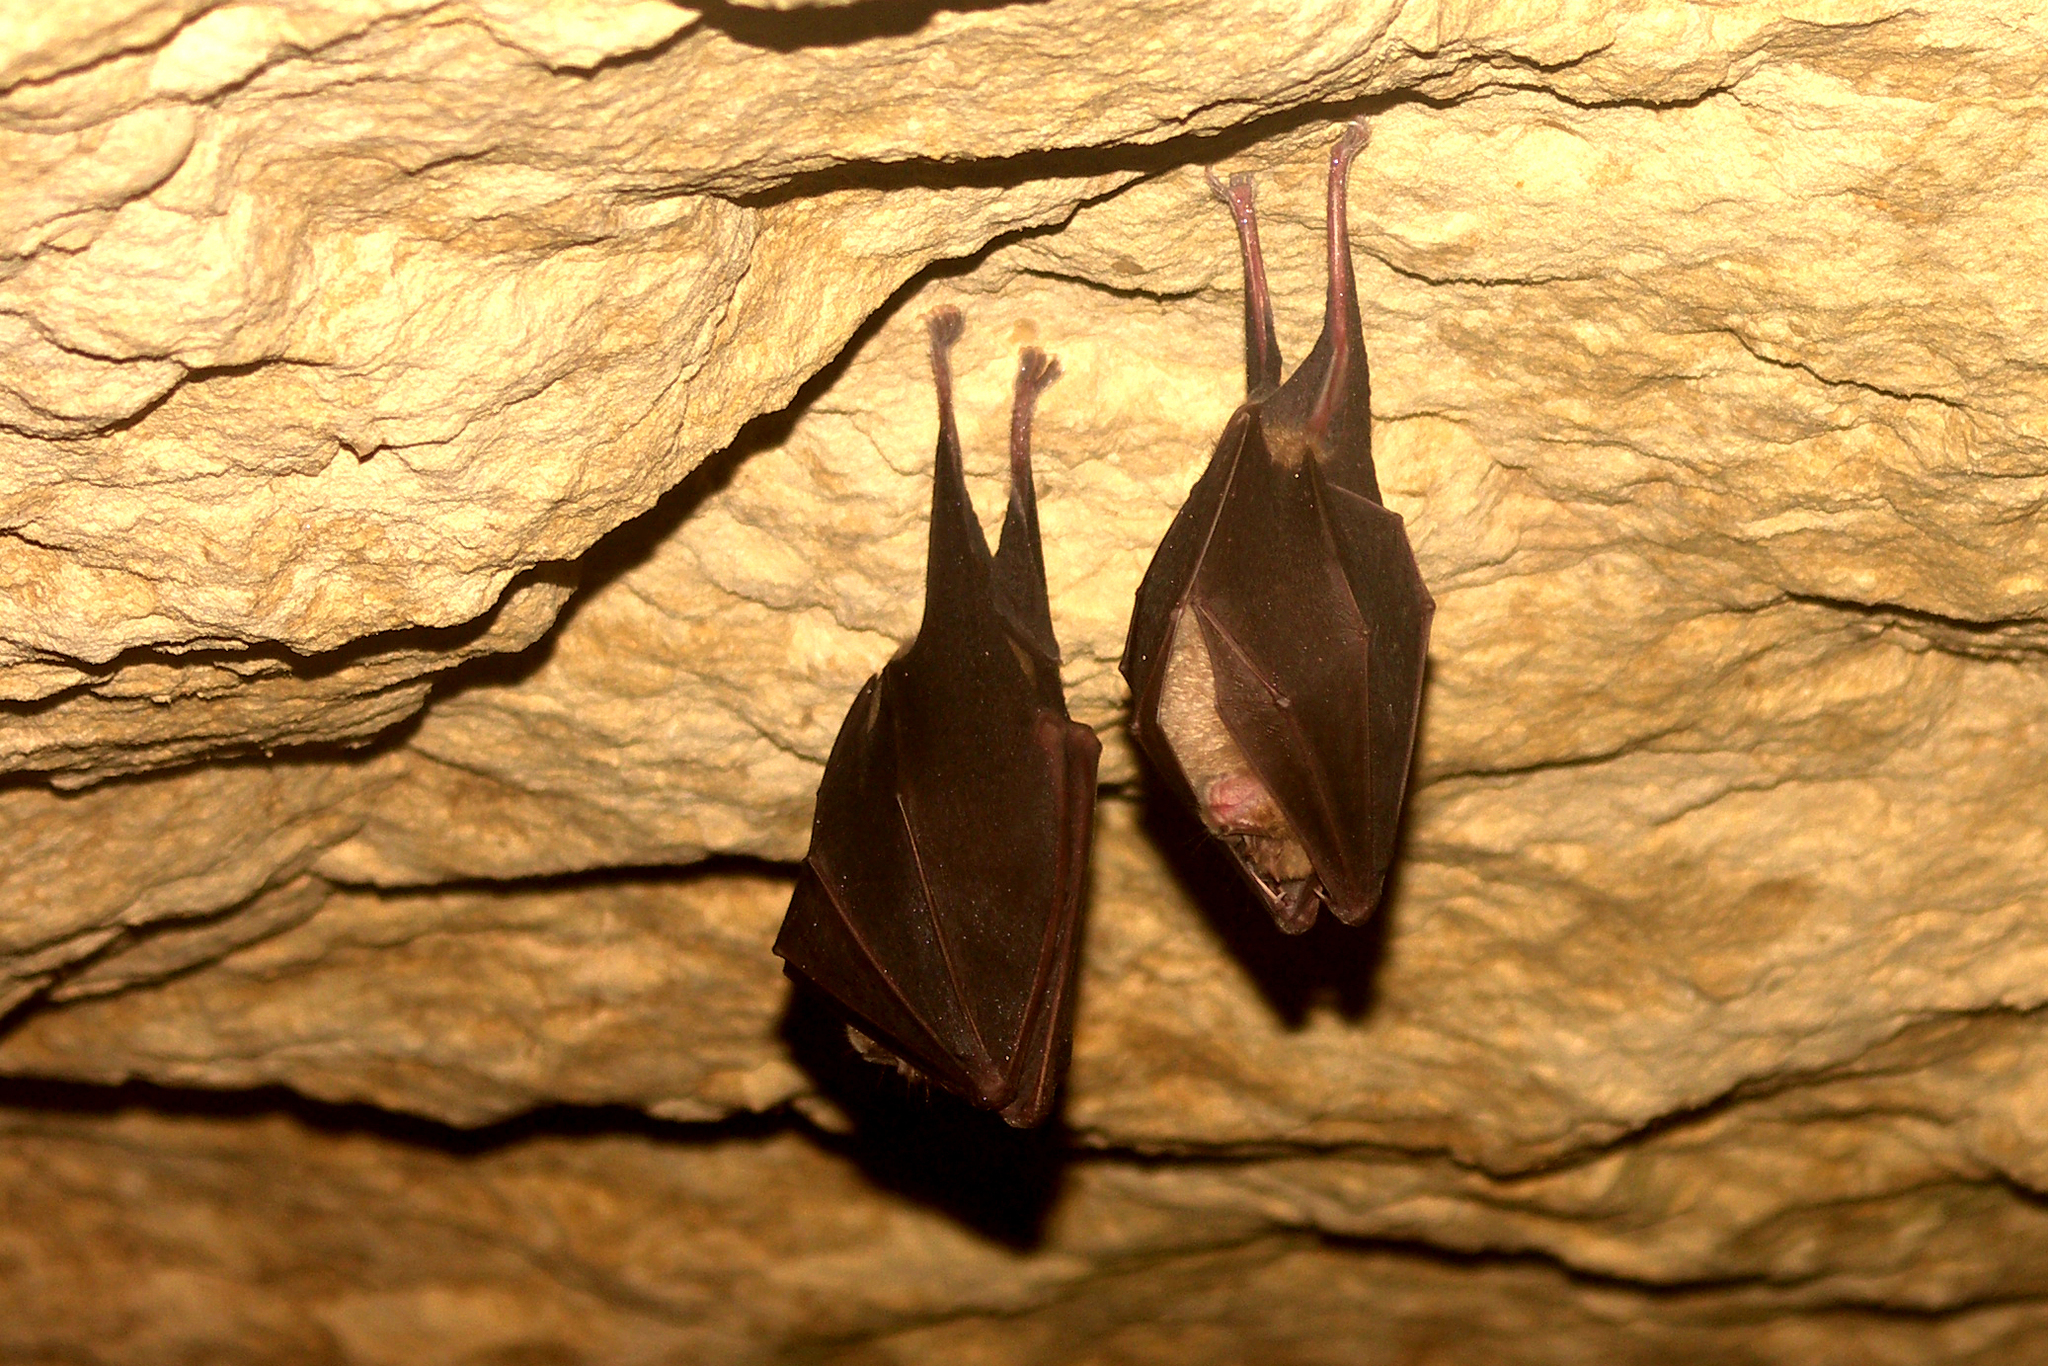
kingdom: Animalia
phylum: Chordata
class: Mammalia
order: Chiroptera
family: Rhinolophidae
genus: Rhinolophus
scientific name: Rhinolophus ferrumequinum
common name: Greater horseshoe bat
